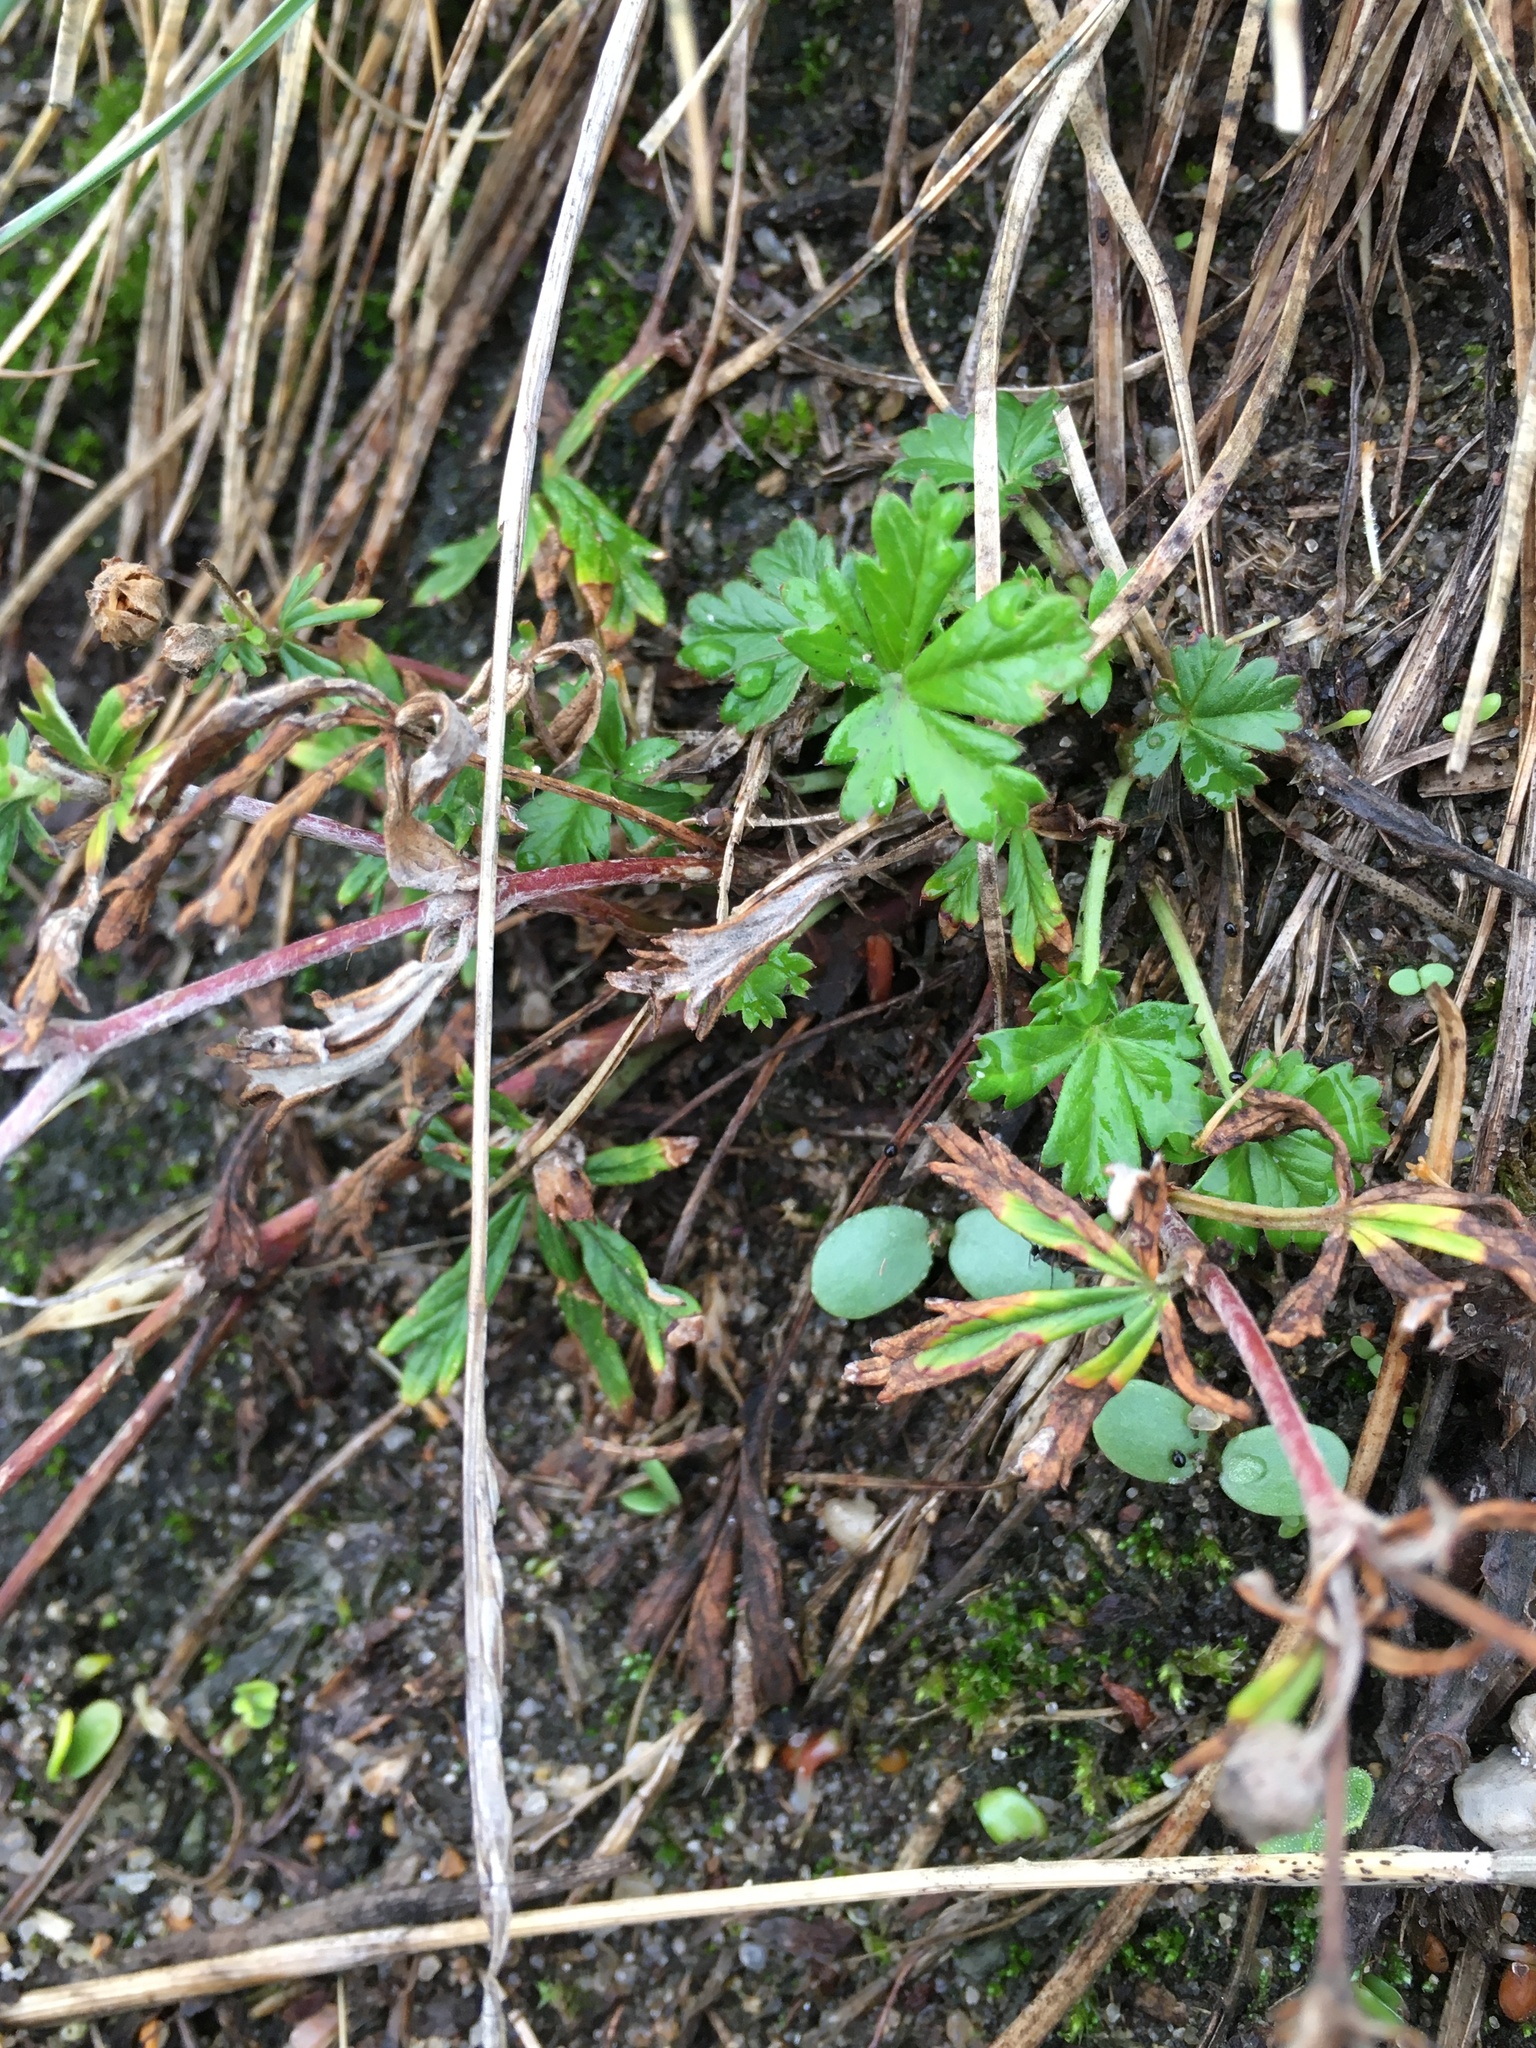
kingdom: Plantae
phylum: Tracheophyta
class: Magnoliopsida
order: Rosales
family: Rosaceae
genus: Potentilla
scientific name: Potentilla argentea
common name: Hoary cinquefoil
